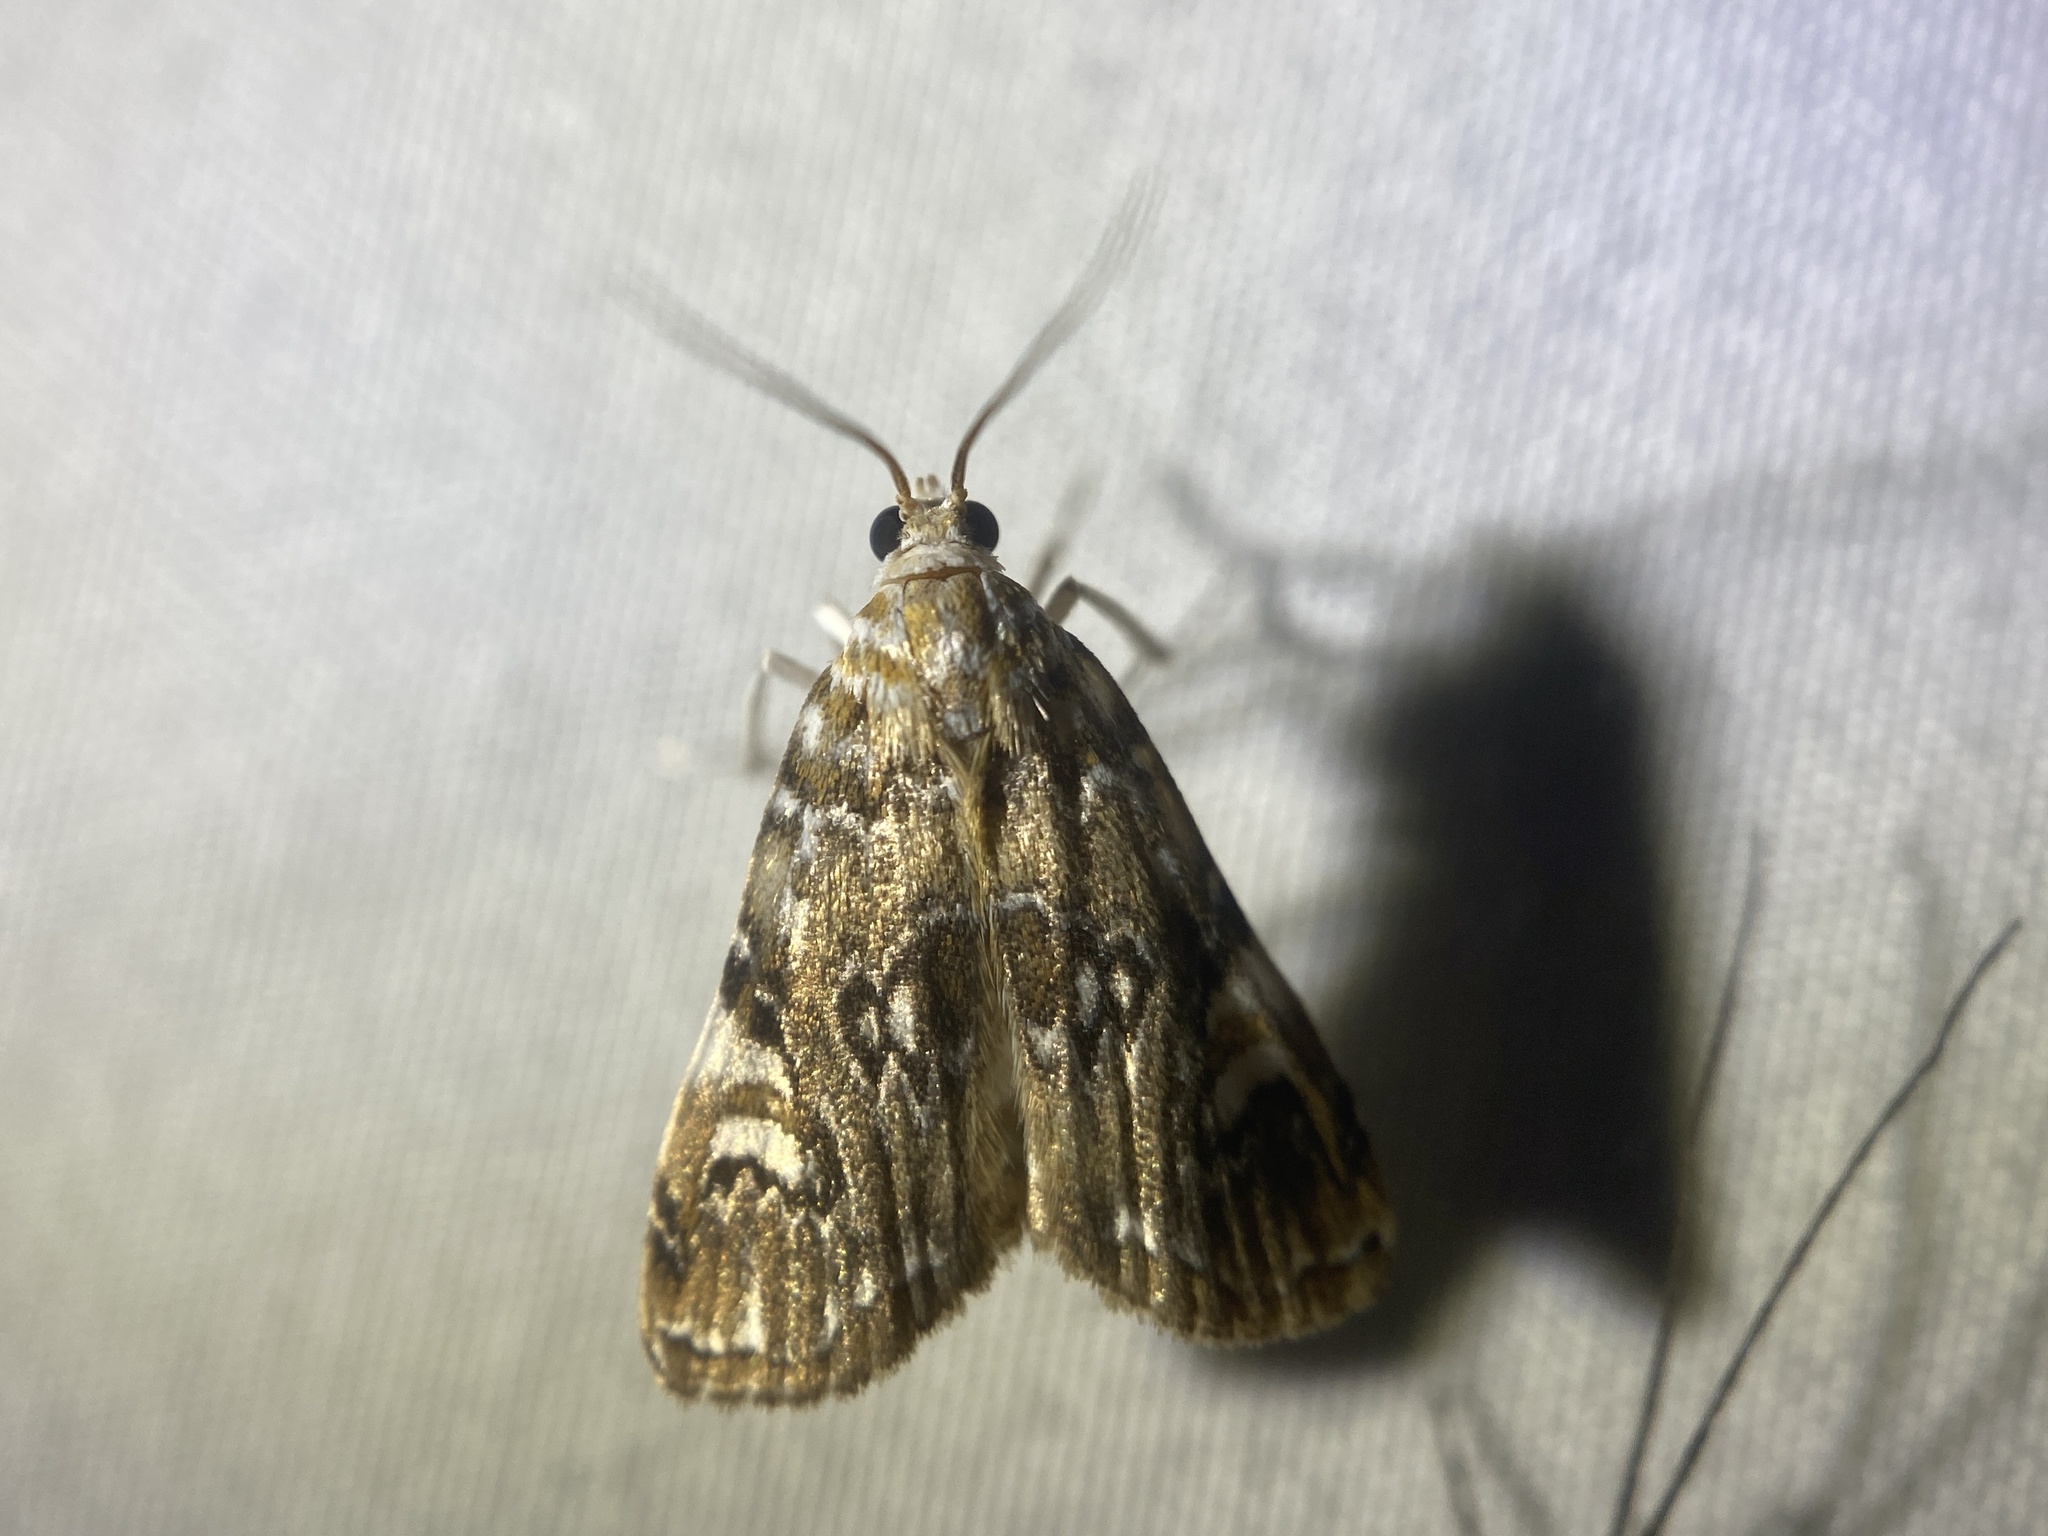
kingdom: Animalia
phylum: Arthropoda
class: Insecta
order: Lepidoptera
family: Crambidae
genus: Elophila
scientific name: Elophila gyralis
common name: Waterlily borer moth
